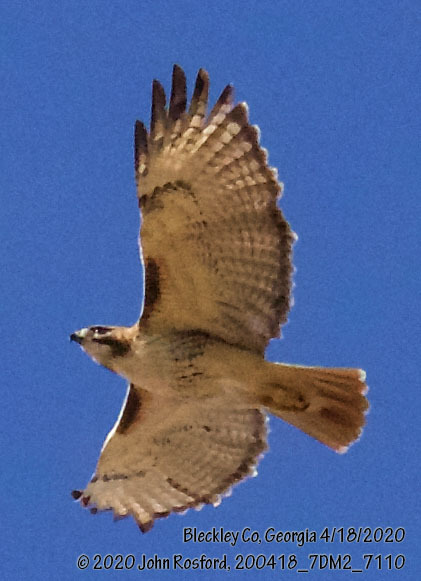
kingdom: Animalia
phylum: Chordata
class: Aves
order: Accipitriformes
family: Accipitridae
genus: Buteo
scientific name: Buteo jamaicensis
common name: Red-tailed hawk
